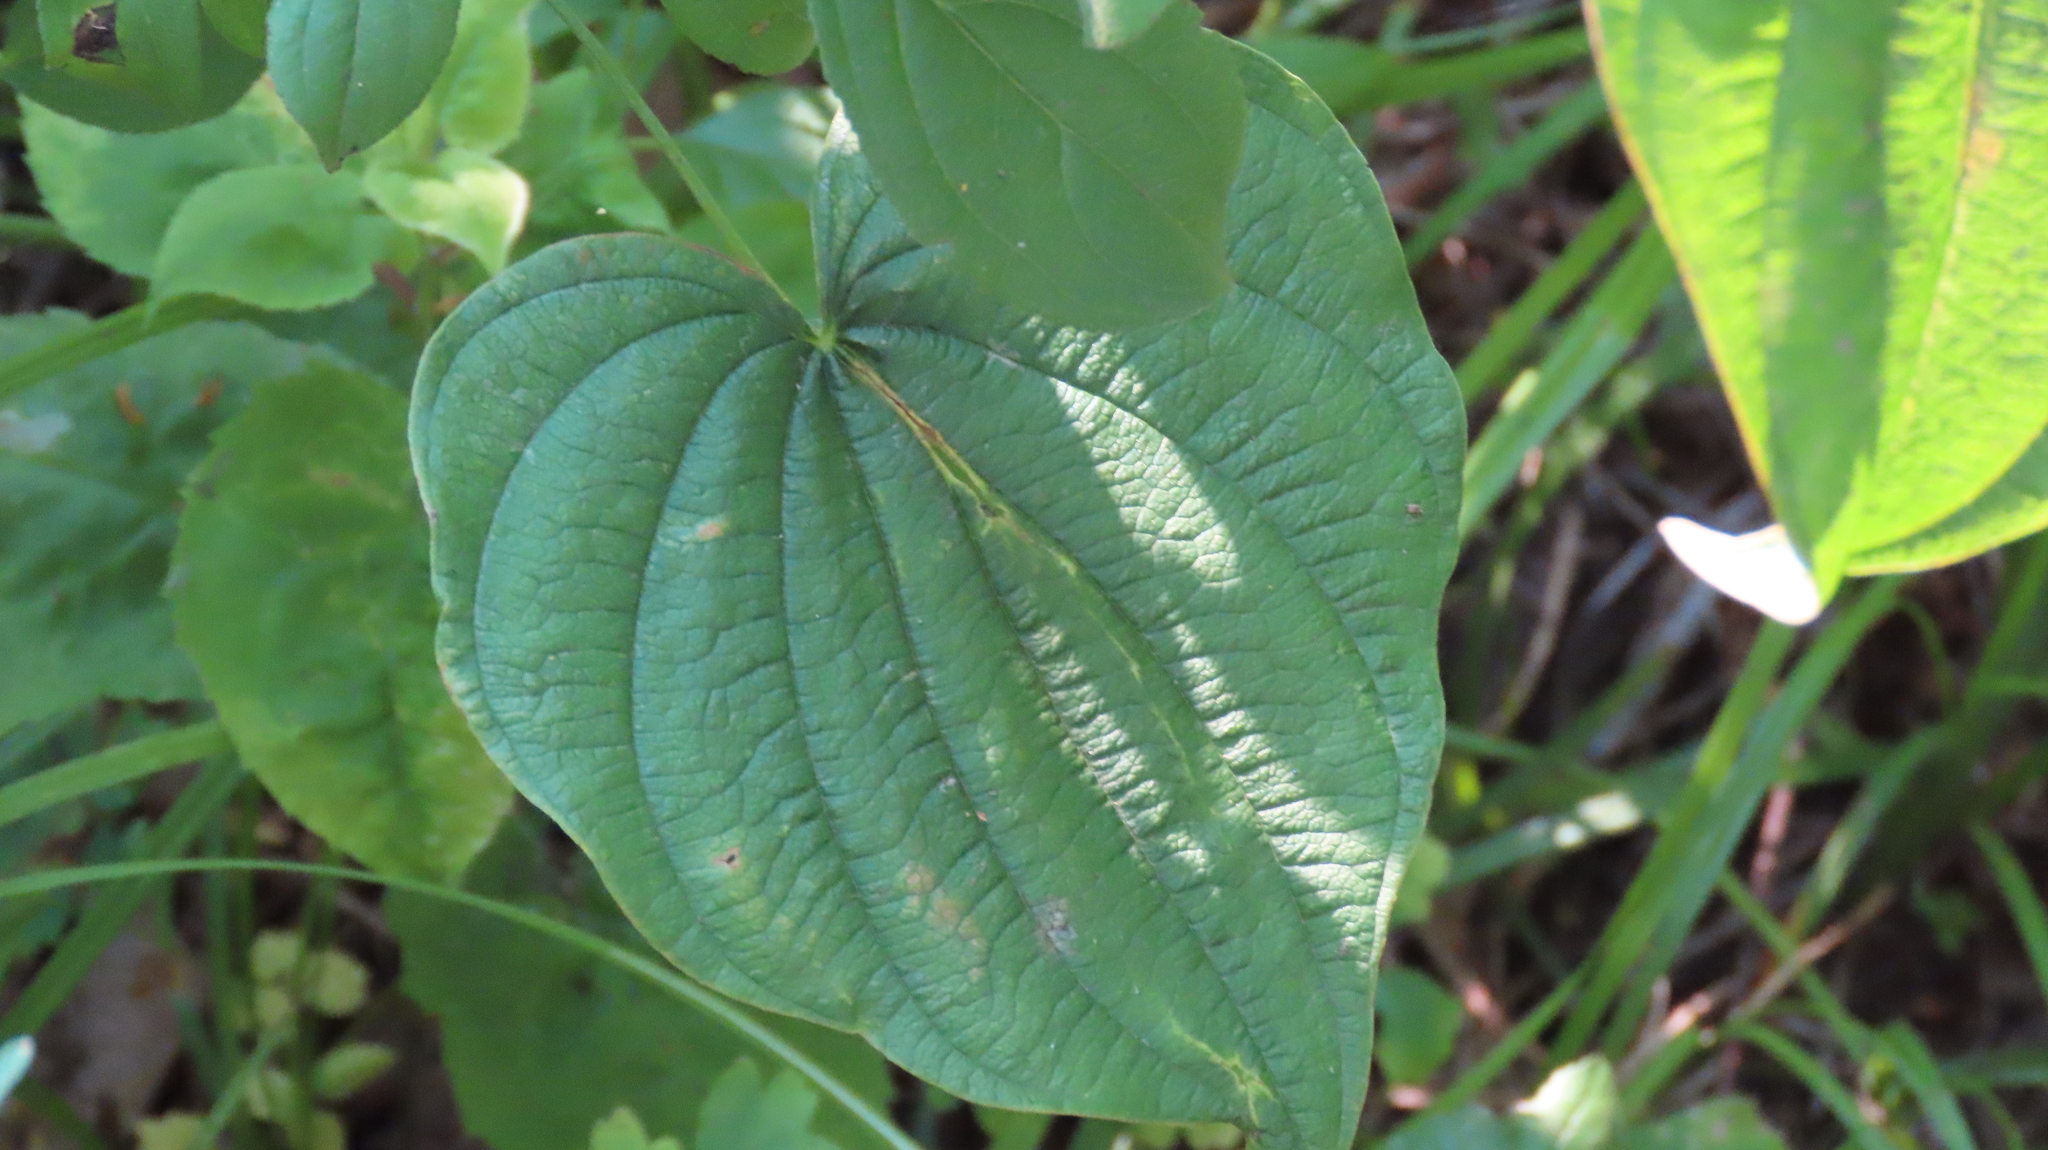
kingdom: Plantae
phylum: Tracheophyta
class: Liliopsida
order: Dioscoreales
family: Dioscoreaceae
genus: Dioscorea
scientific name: Dioscorea villosa
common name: Wild yam
